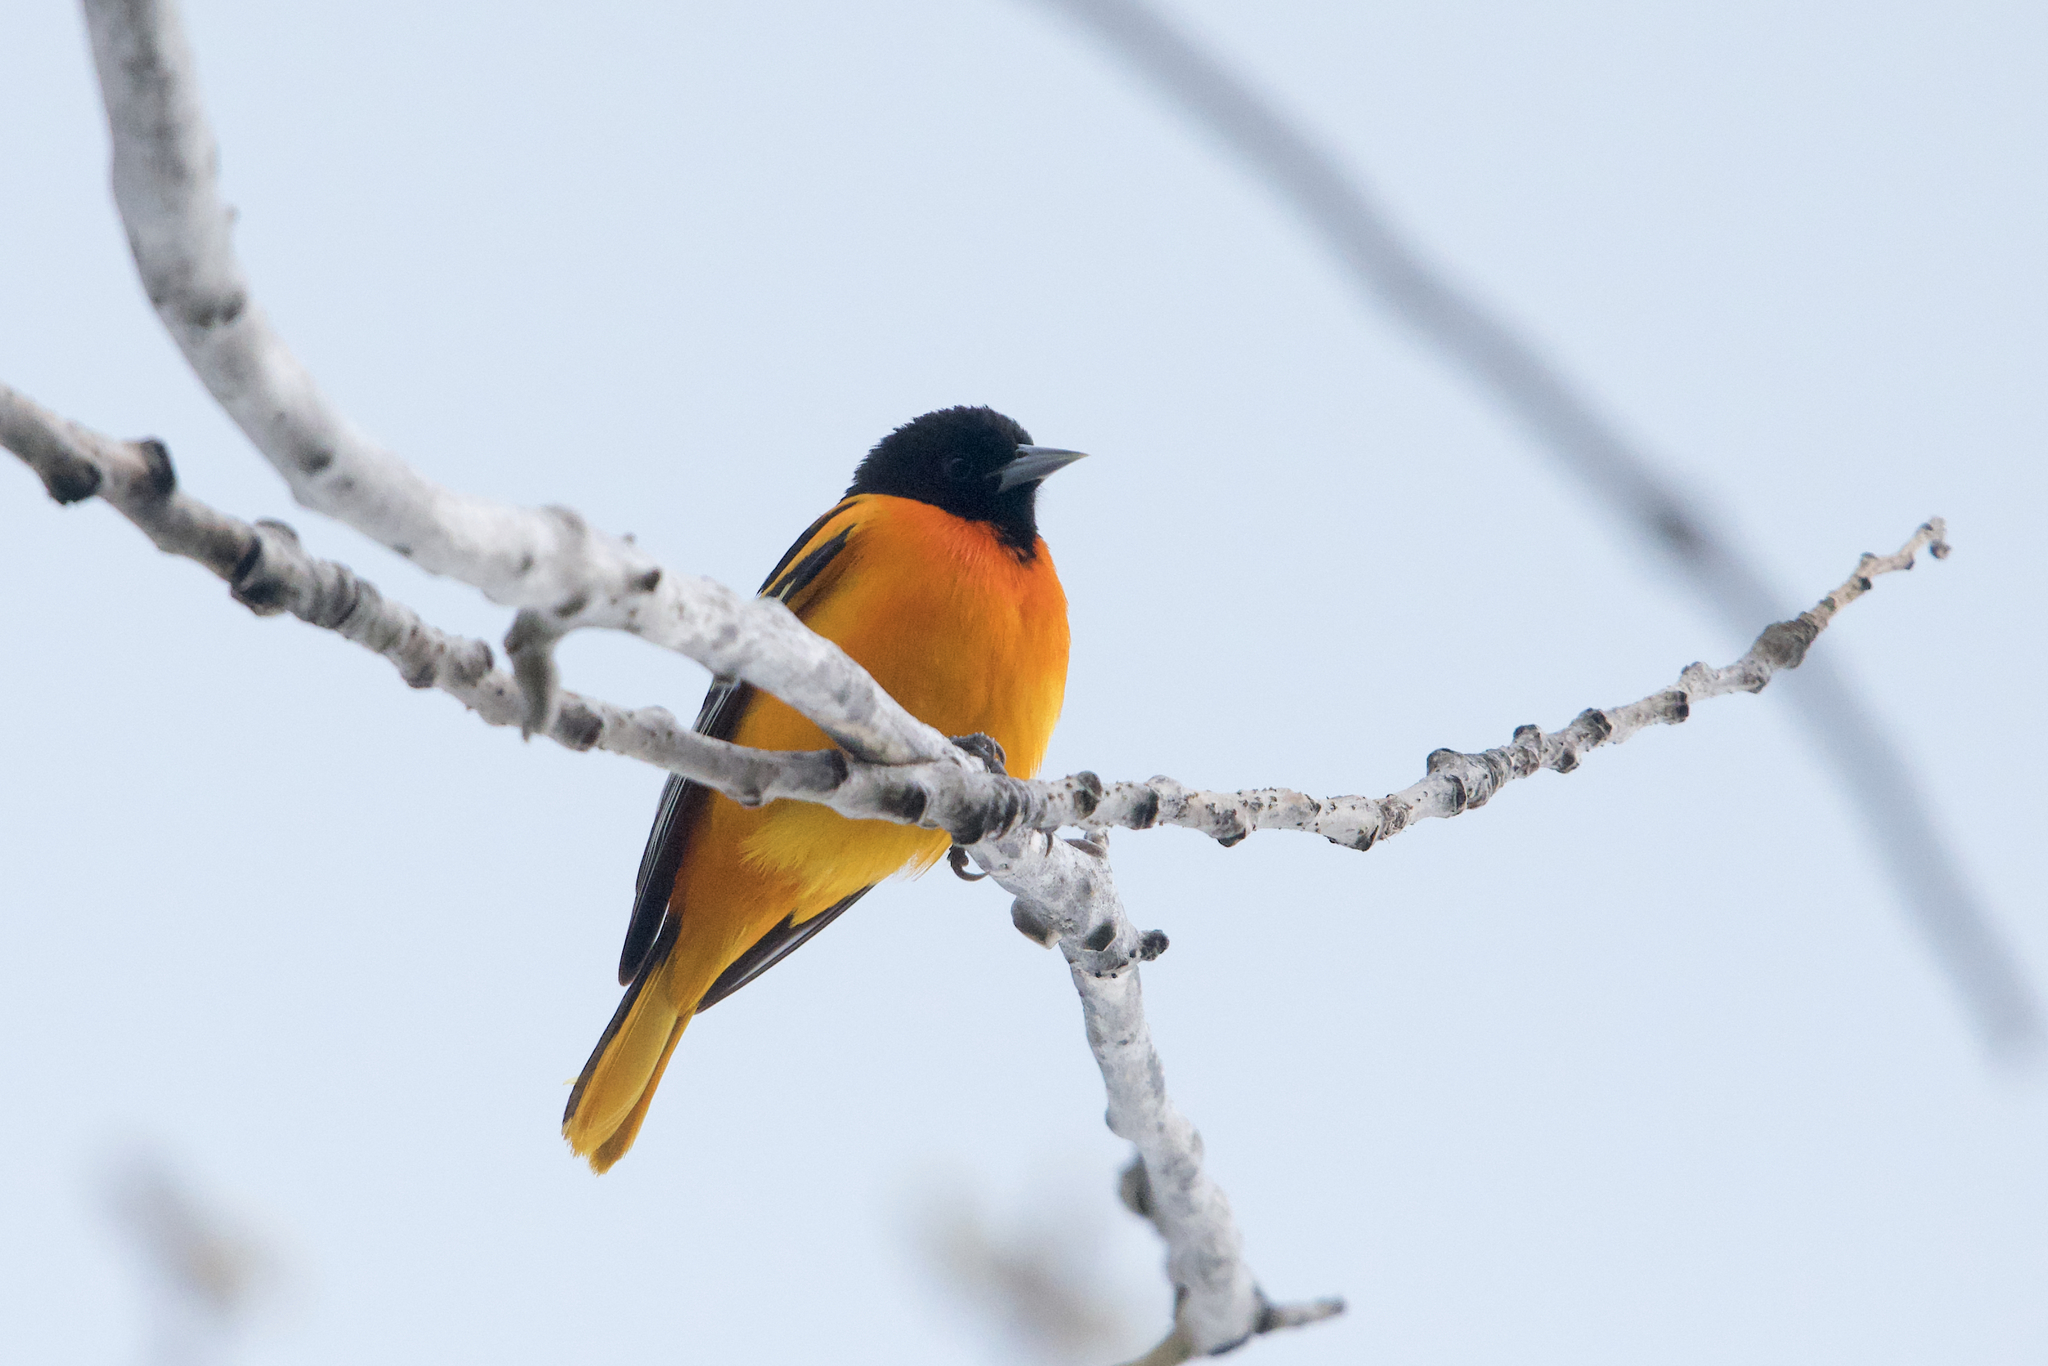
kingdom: Animalia
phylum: Chordata
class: Aves
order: Passeriformes
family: Icteridae
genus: Icterus
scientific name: Icterus galbula
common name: Baltimore oriole
